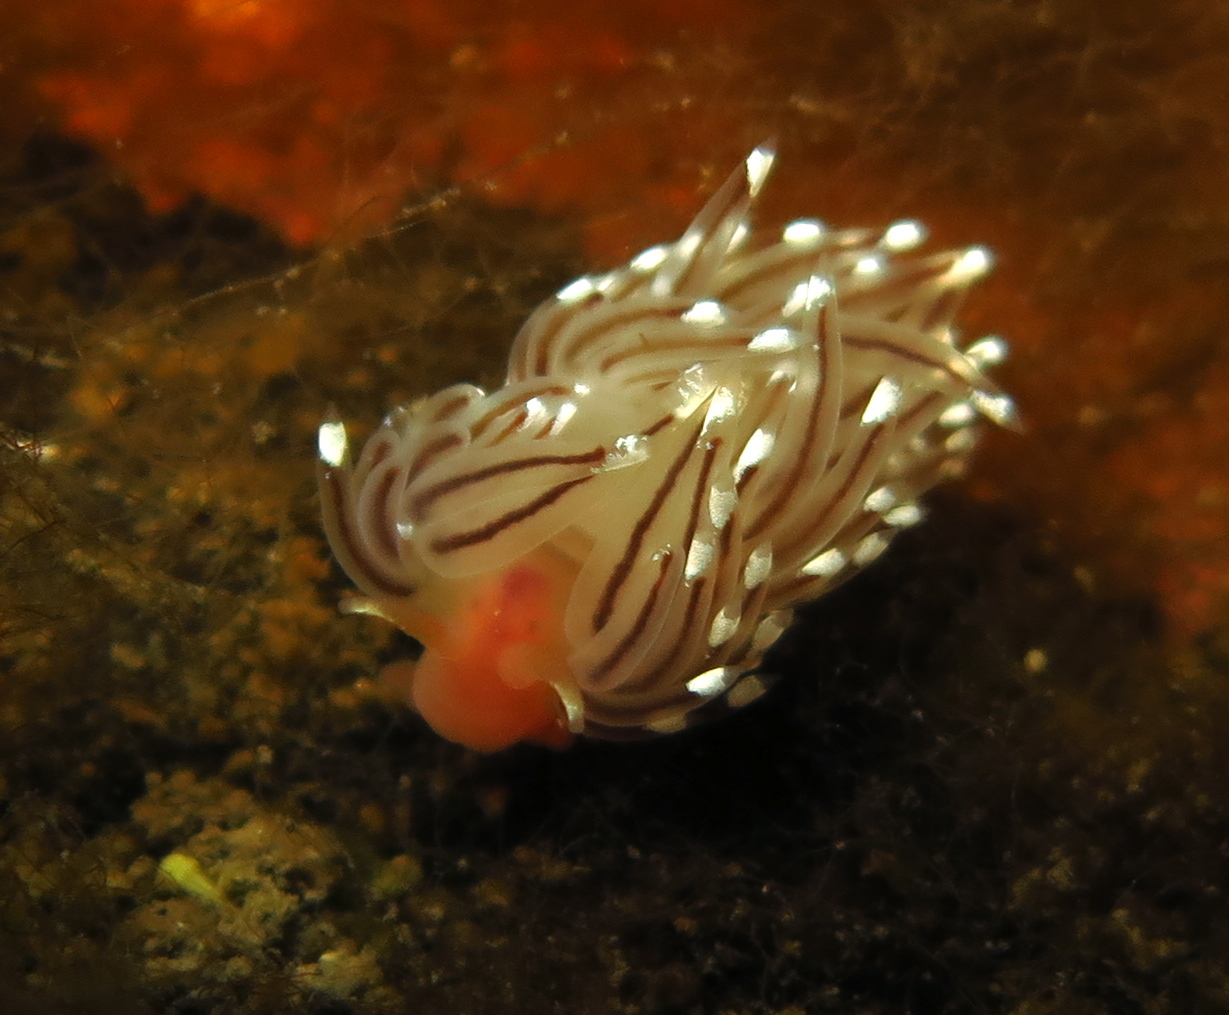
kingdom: Animalia
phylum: Mollusca
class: Gastropoda
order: Nudibranchia
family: Facelinidae
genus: Facelina
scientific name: Facelina bostoniensis
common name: Boston facelina
